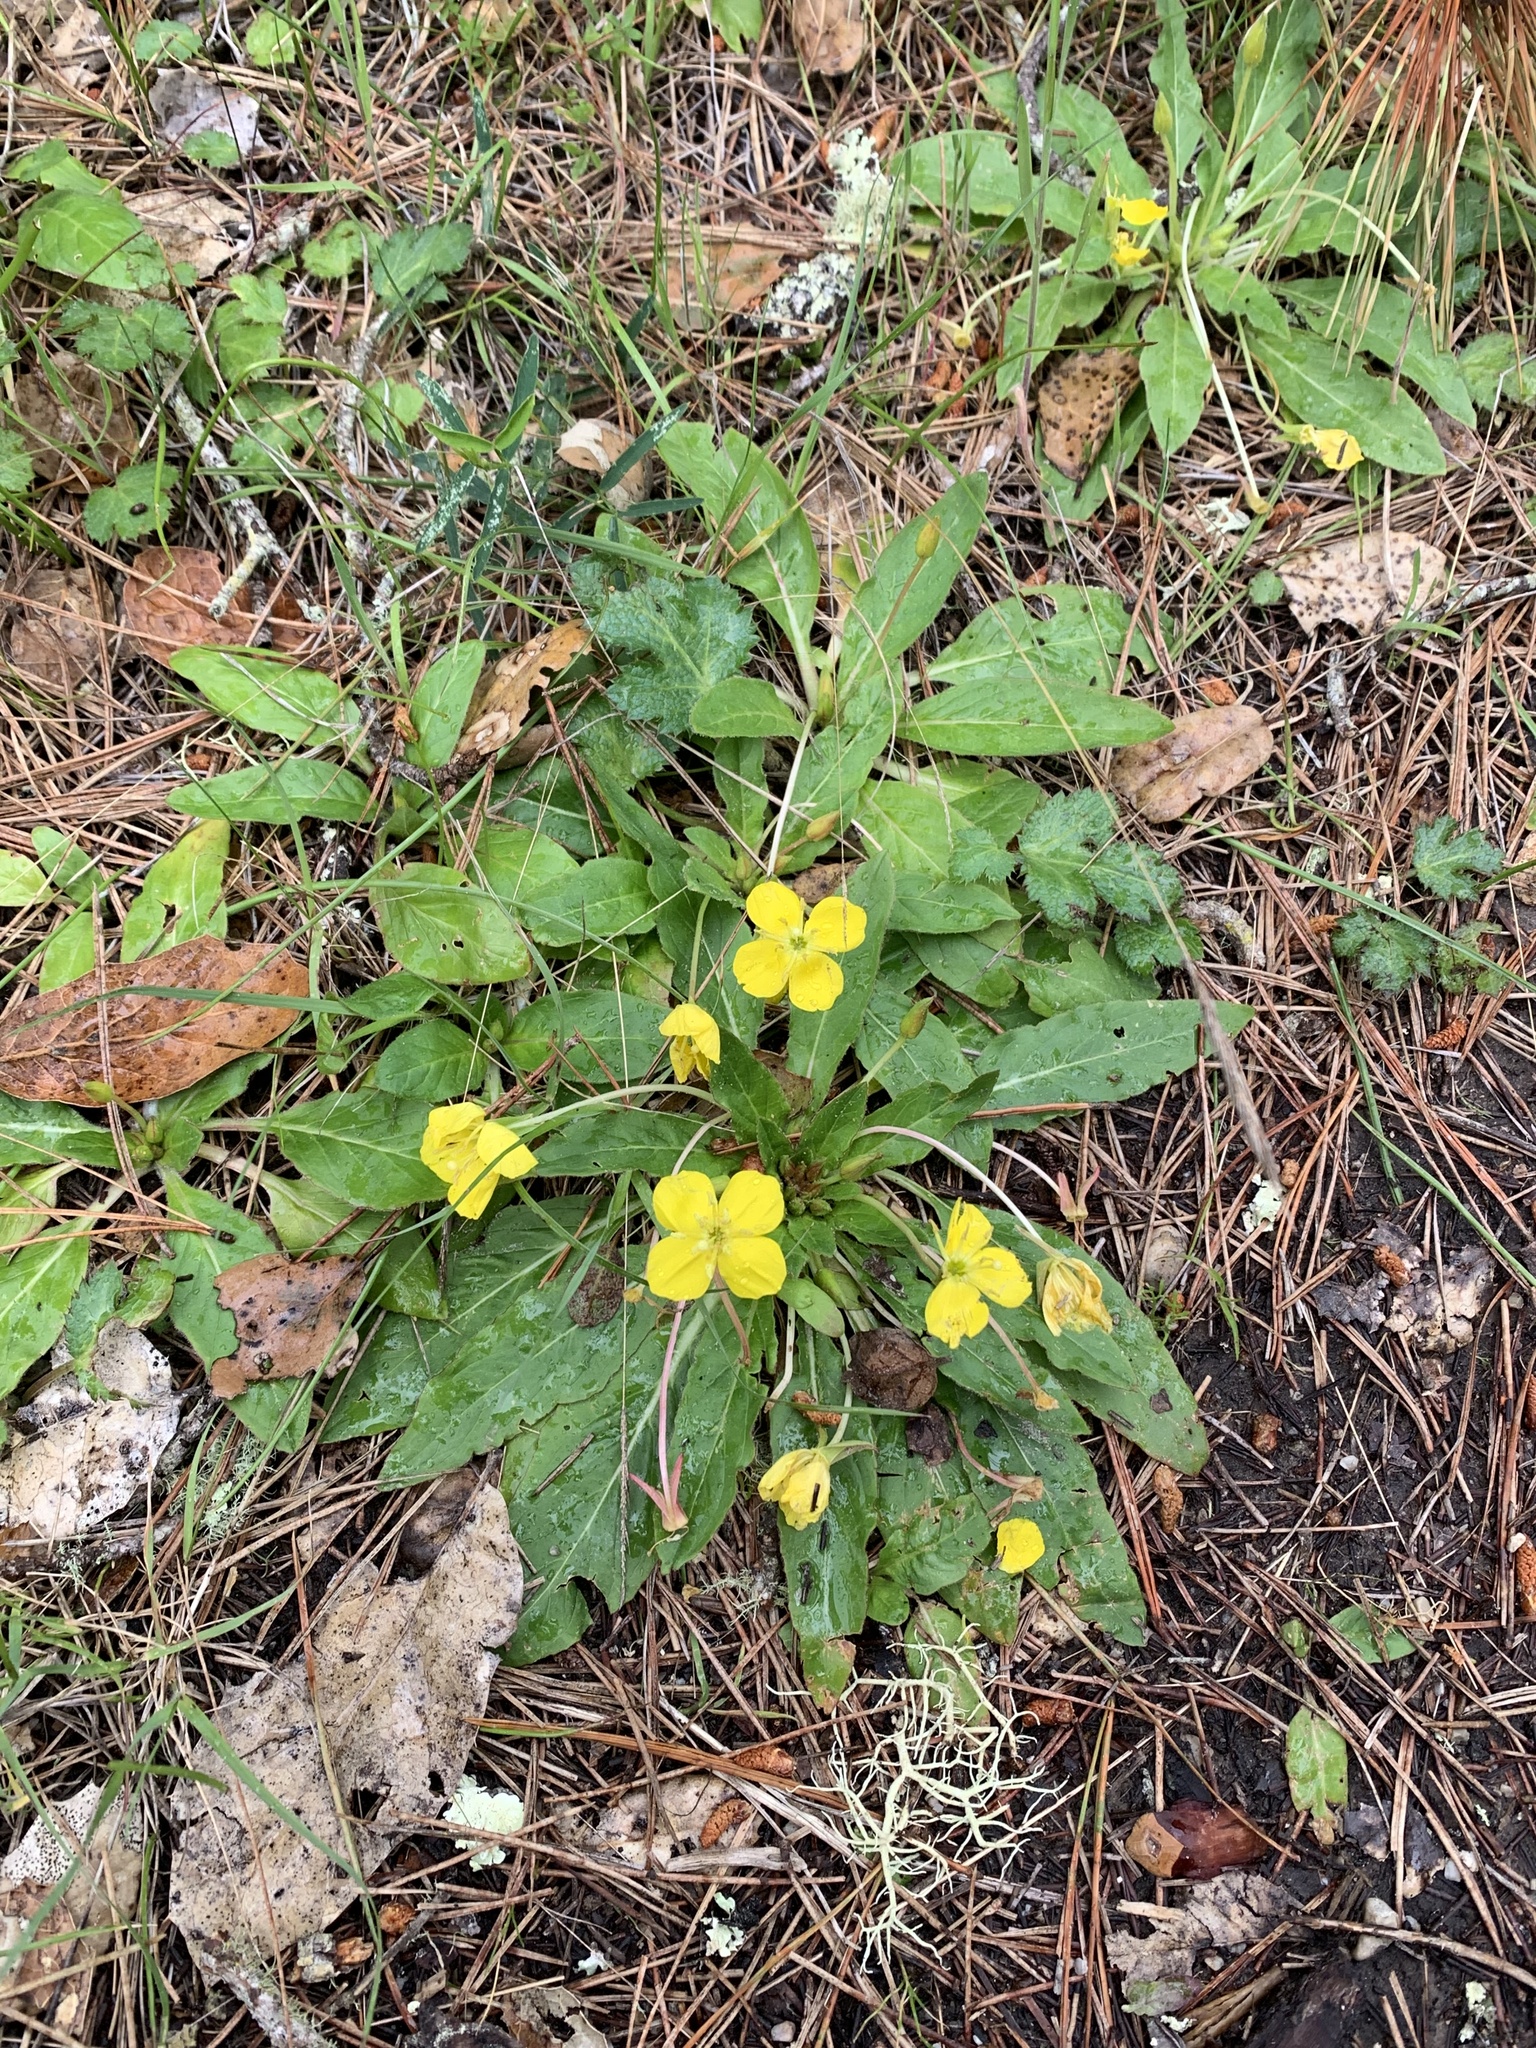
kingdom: Plantae
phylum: Tracheophyta
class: Magnoliopsida
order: Myrtales
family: Onagraceae
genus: Taraxia
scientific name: Taraxia ovata
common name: Goldeneggs
